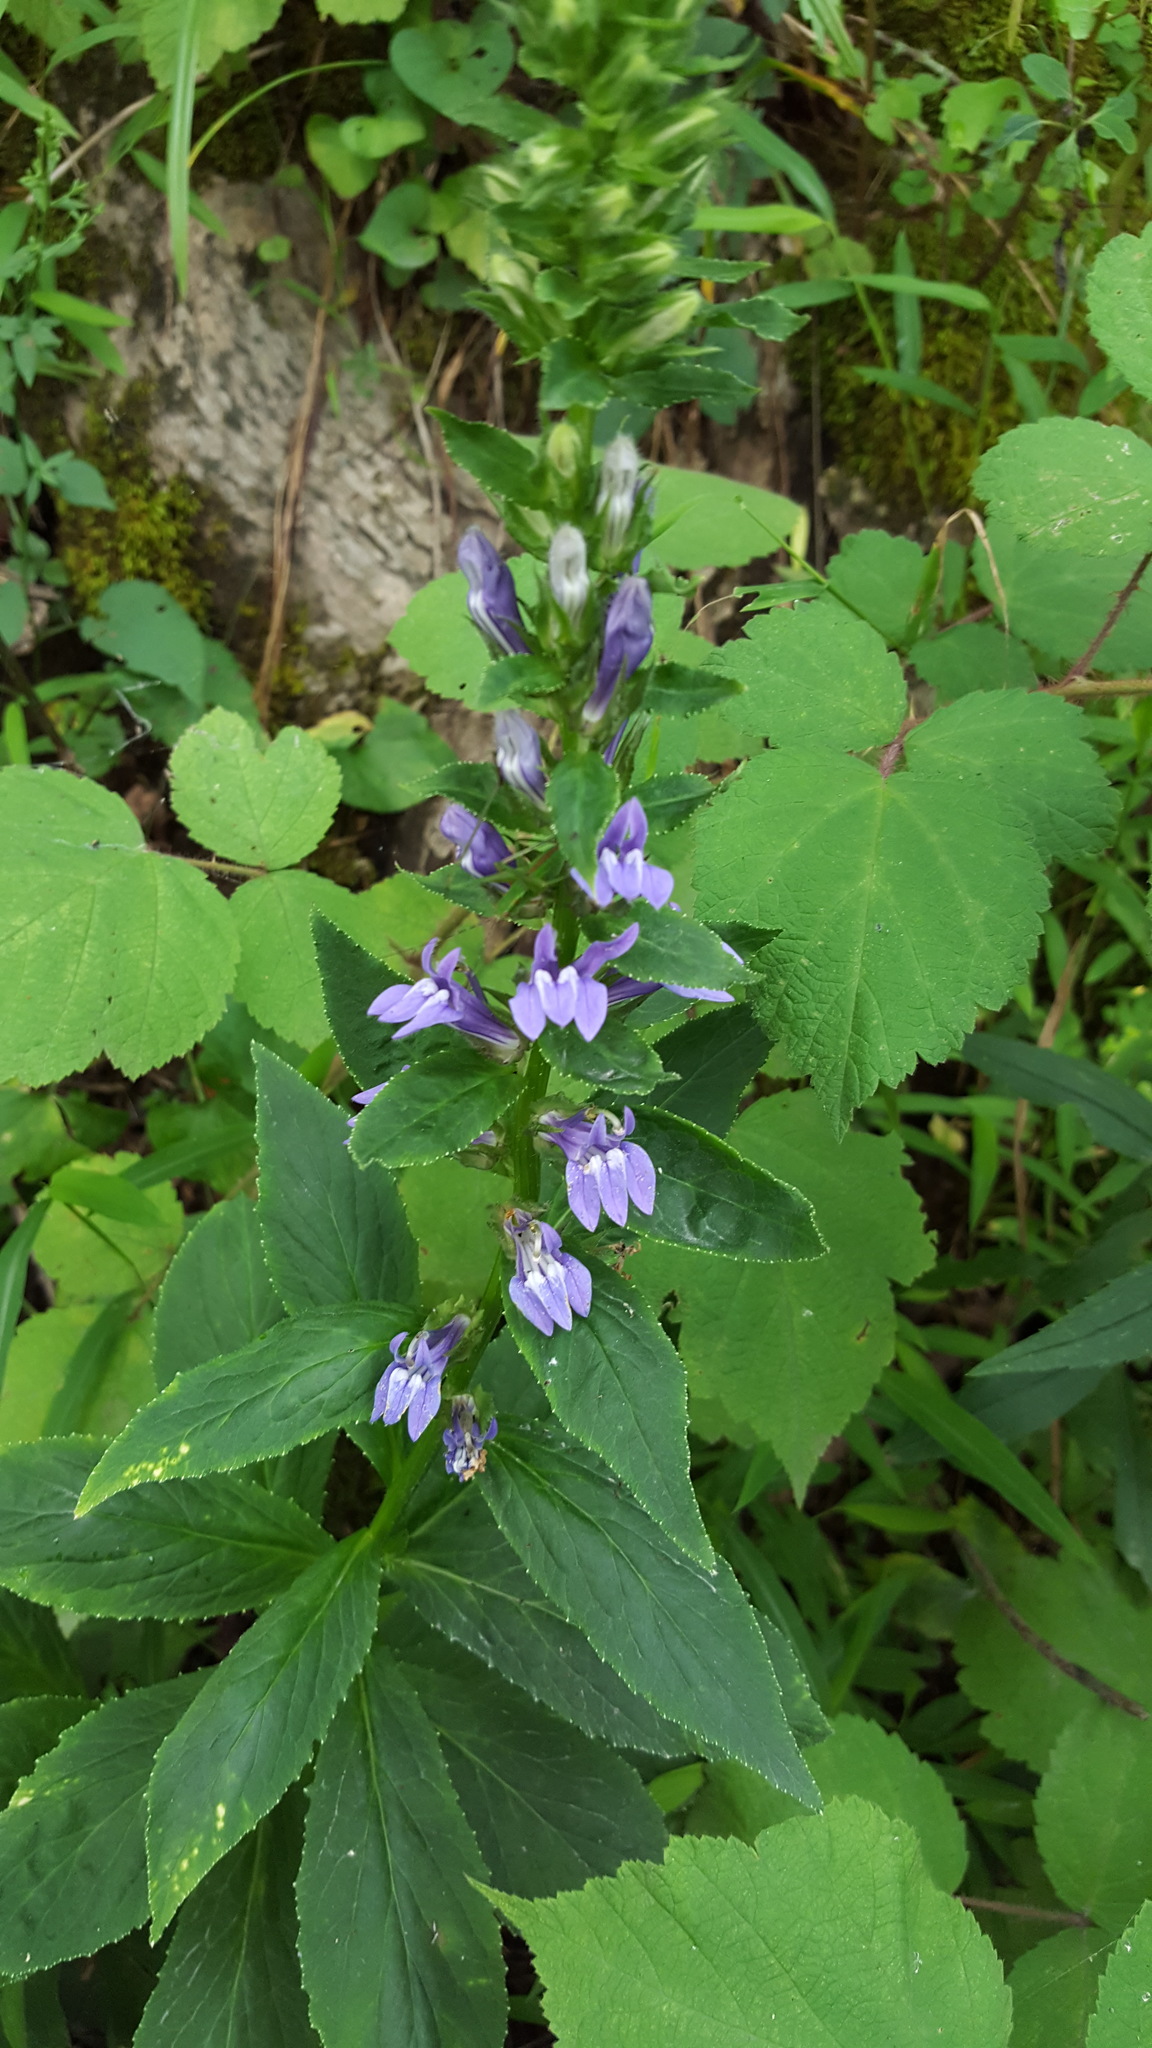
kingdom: Plantae
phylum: Tracheophyta
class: Magnoliopsida
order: Asterales
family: Campanulaceae
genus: Lobelia
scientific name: Lobelia siphilitica
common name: Great lobelia
